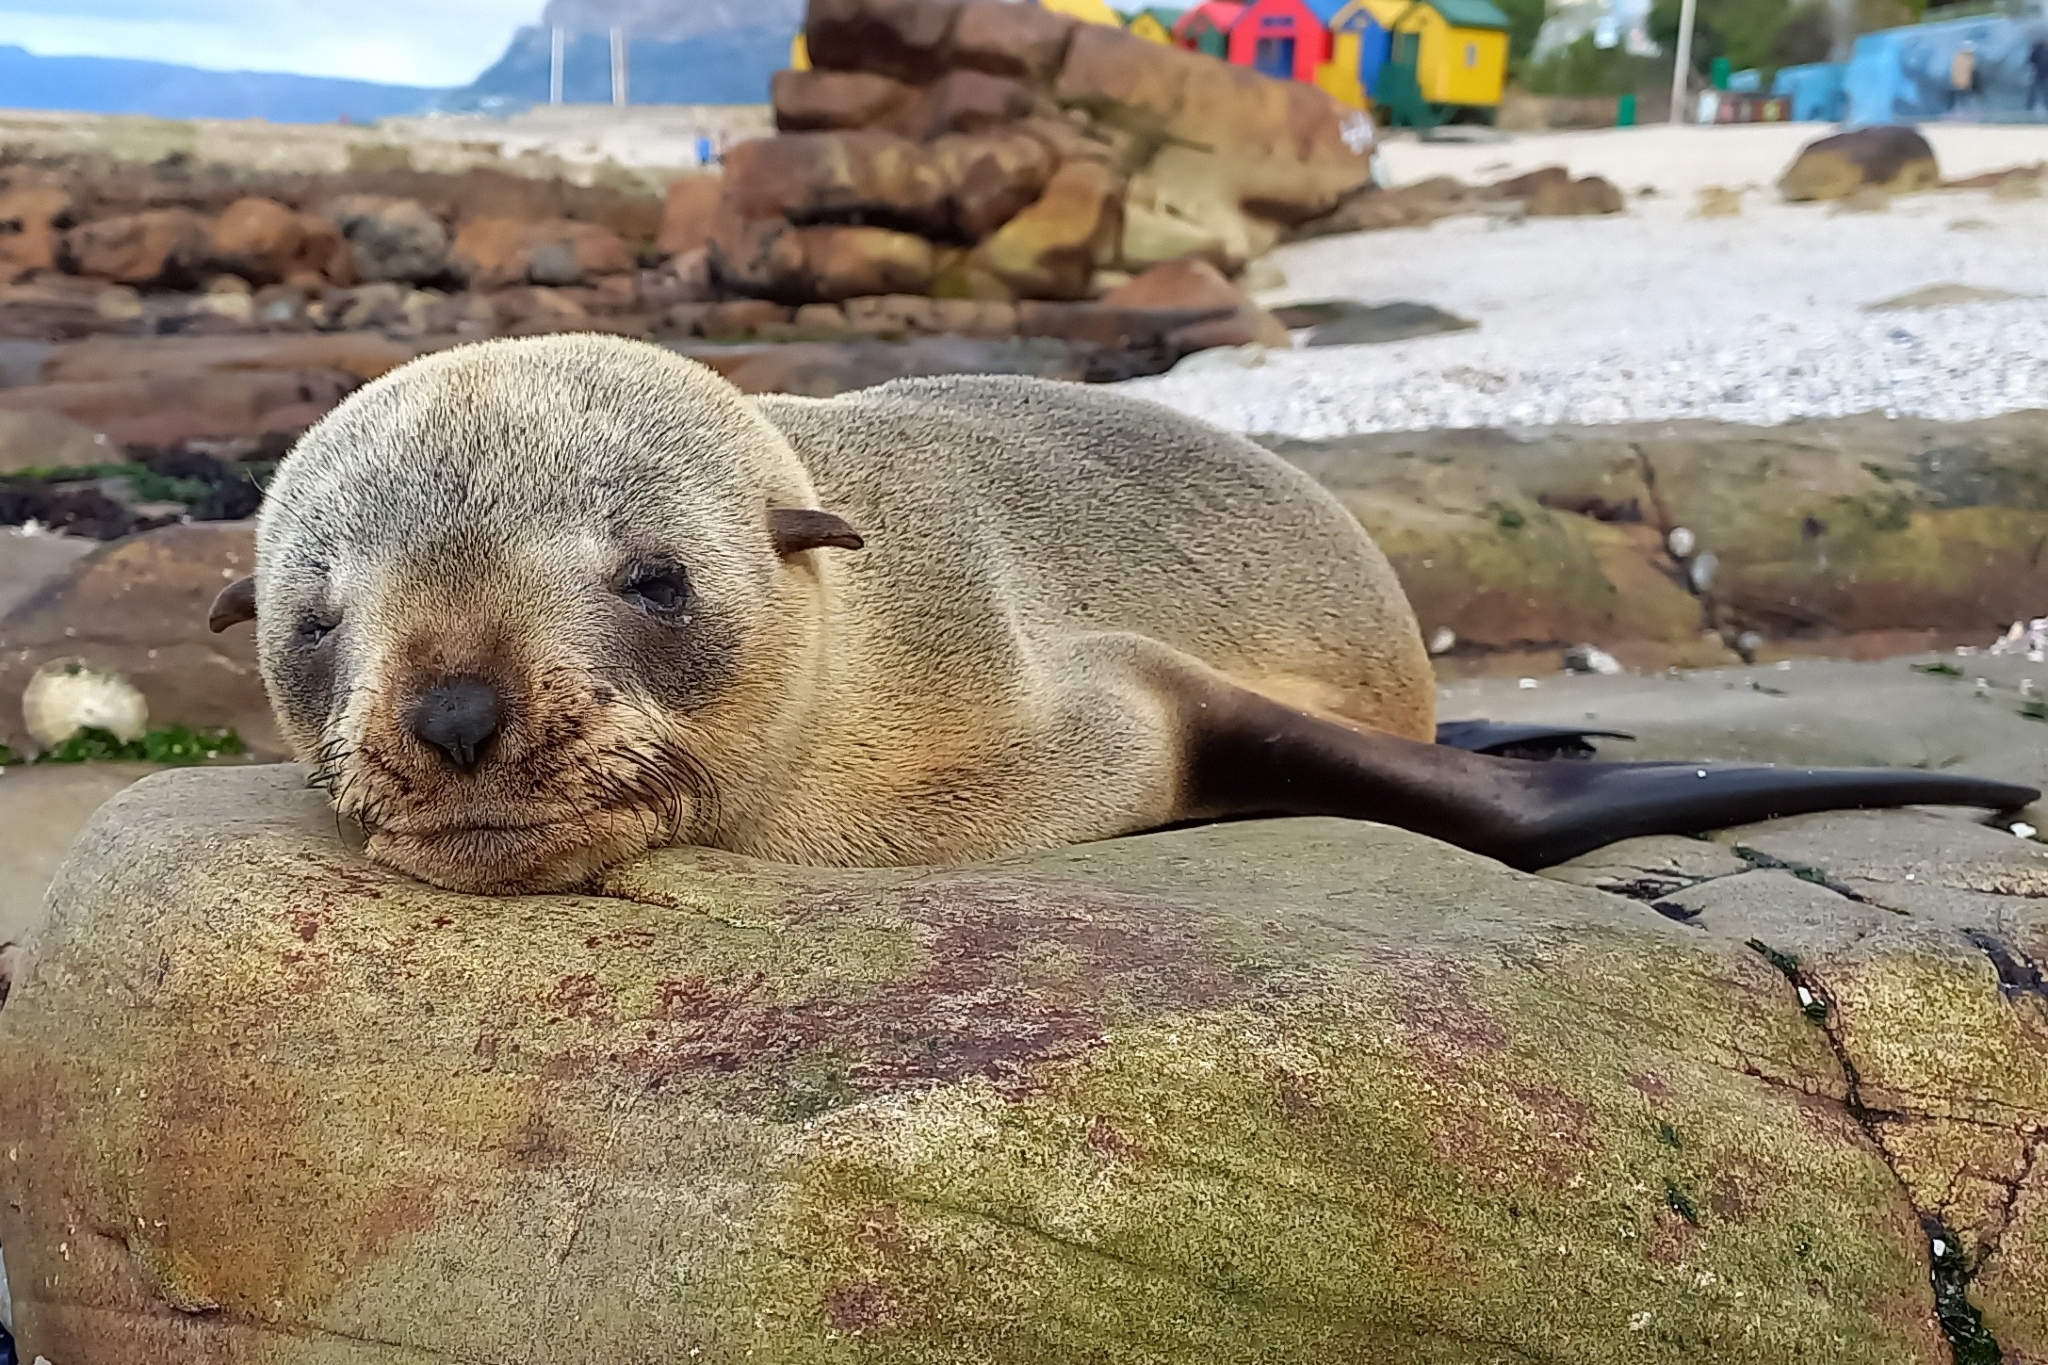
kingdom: Animalia
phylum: Chordata
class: Mammalia
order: Carnivora
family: Otariidae
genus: Arctocephalus
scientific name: Arctocephalus pusillus
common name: Brown fur seal
